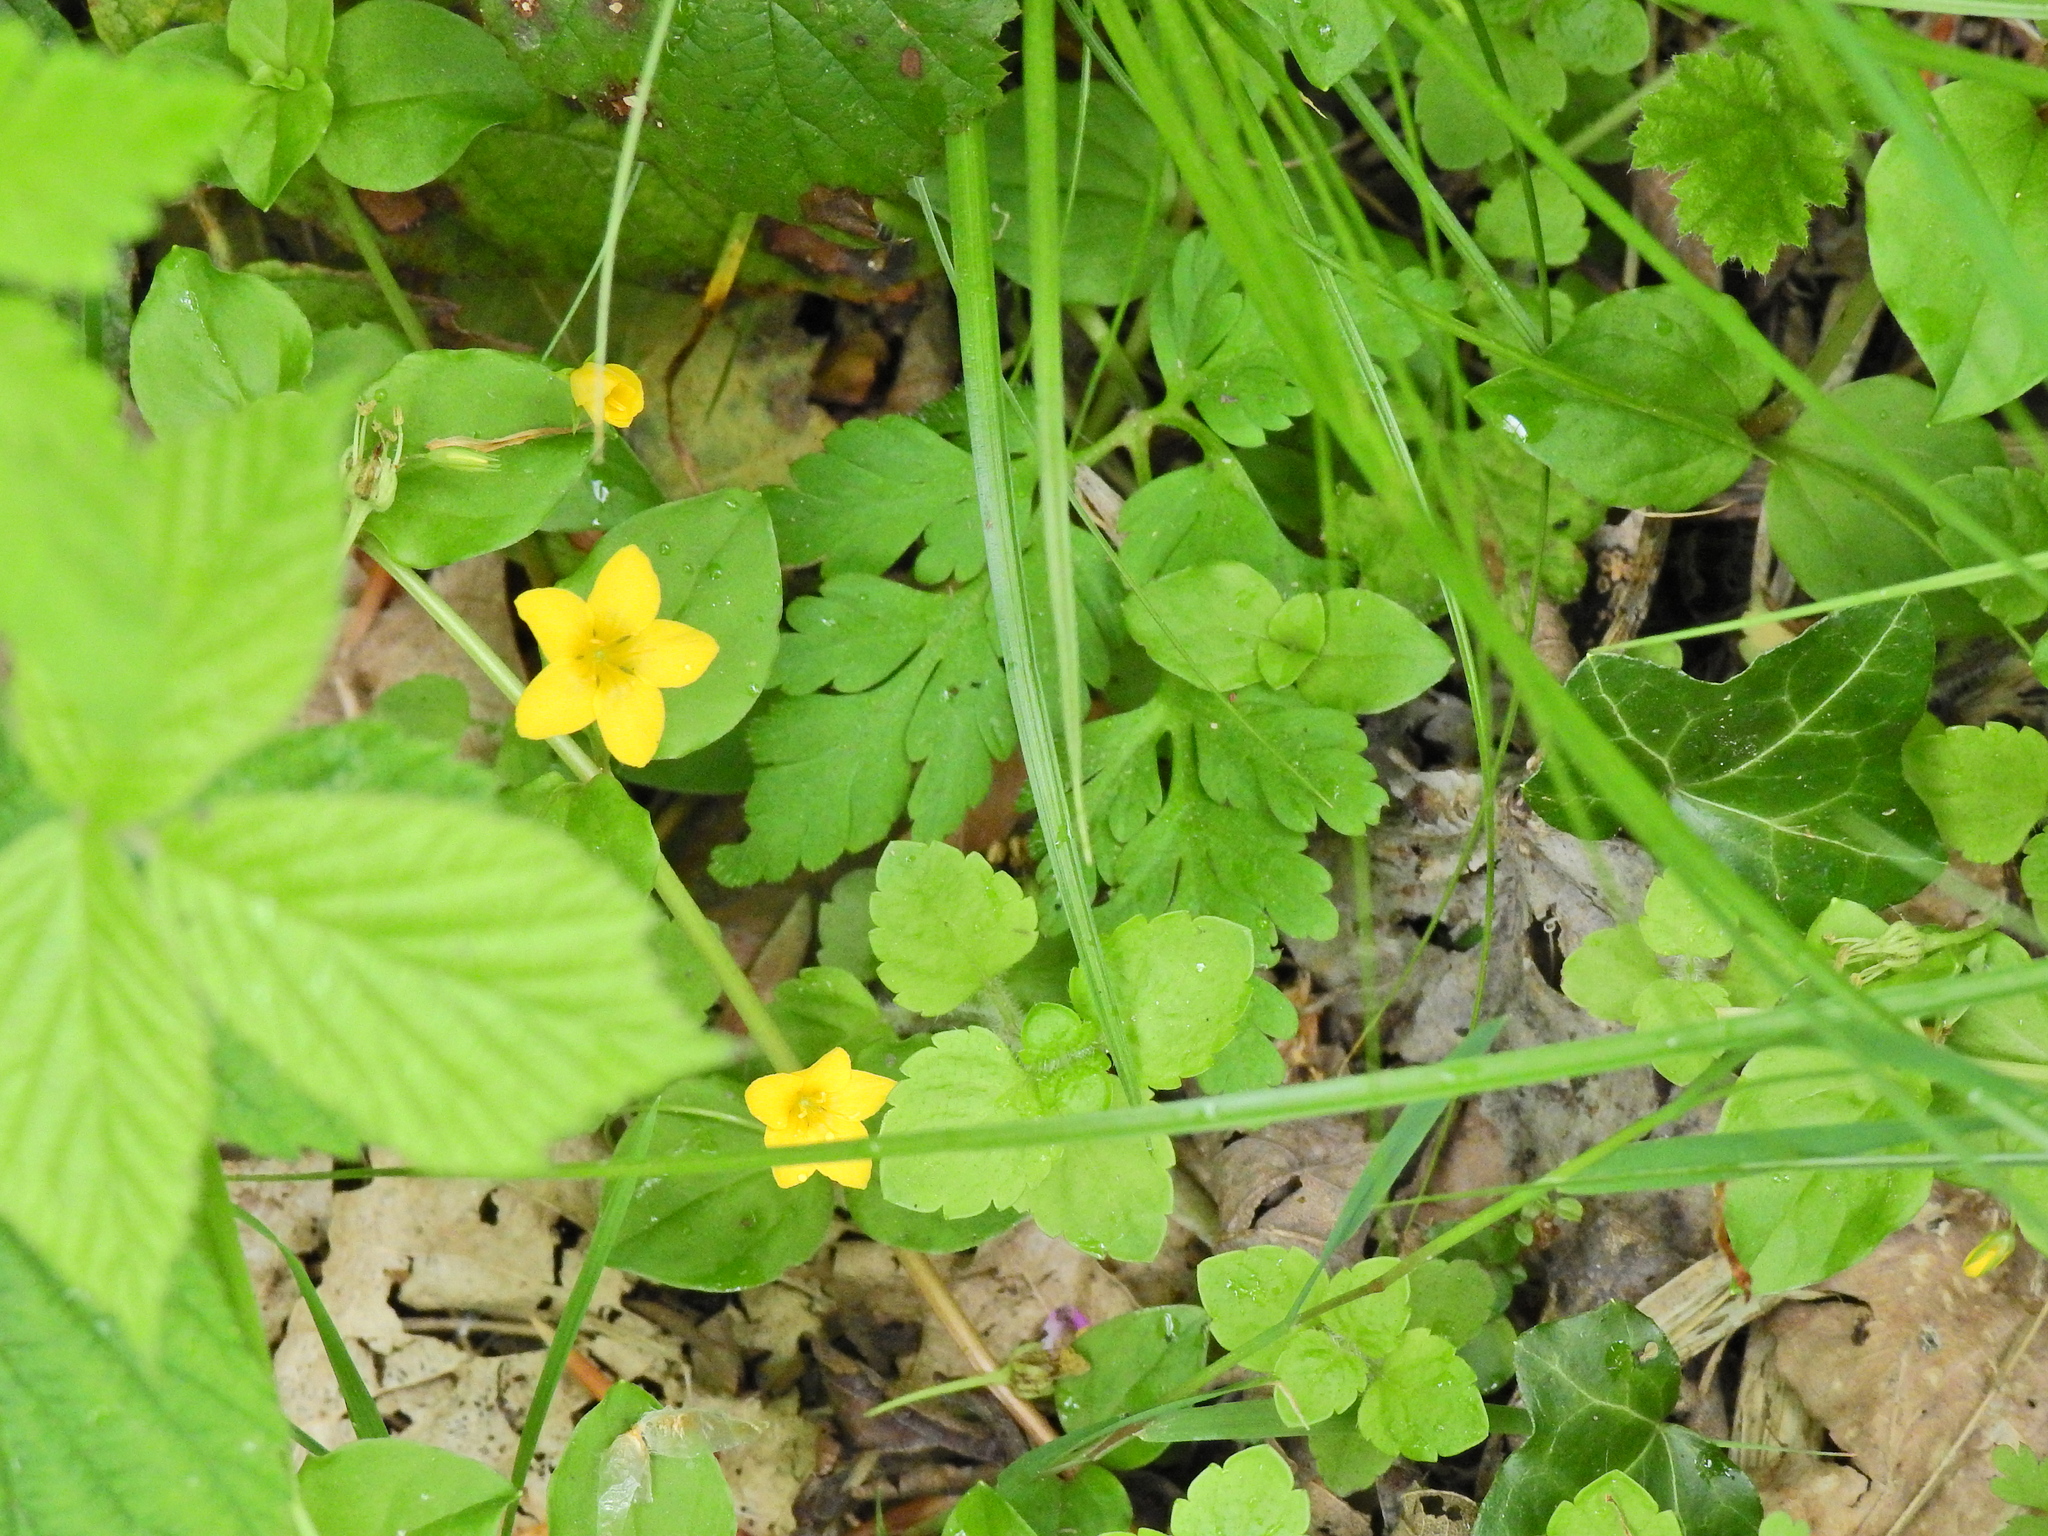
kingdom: Plantae
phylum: Tracheophyta
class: Magnoliopsida
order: Ericales
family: Primulaceae
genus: Lysimachia
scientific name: Lysimachia nemorum
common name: Yellow pimpernel
